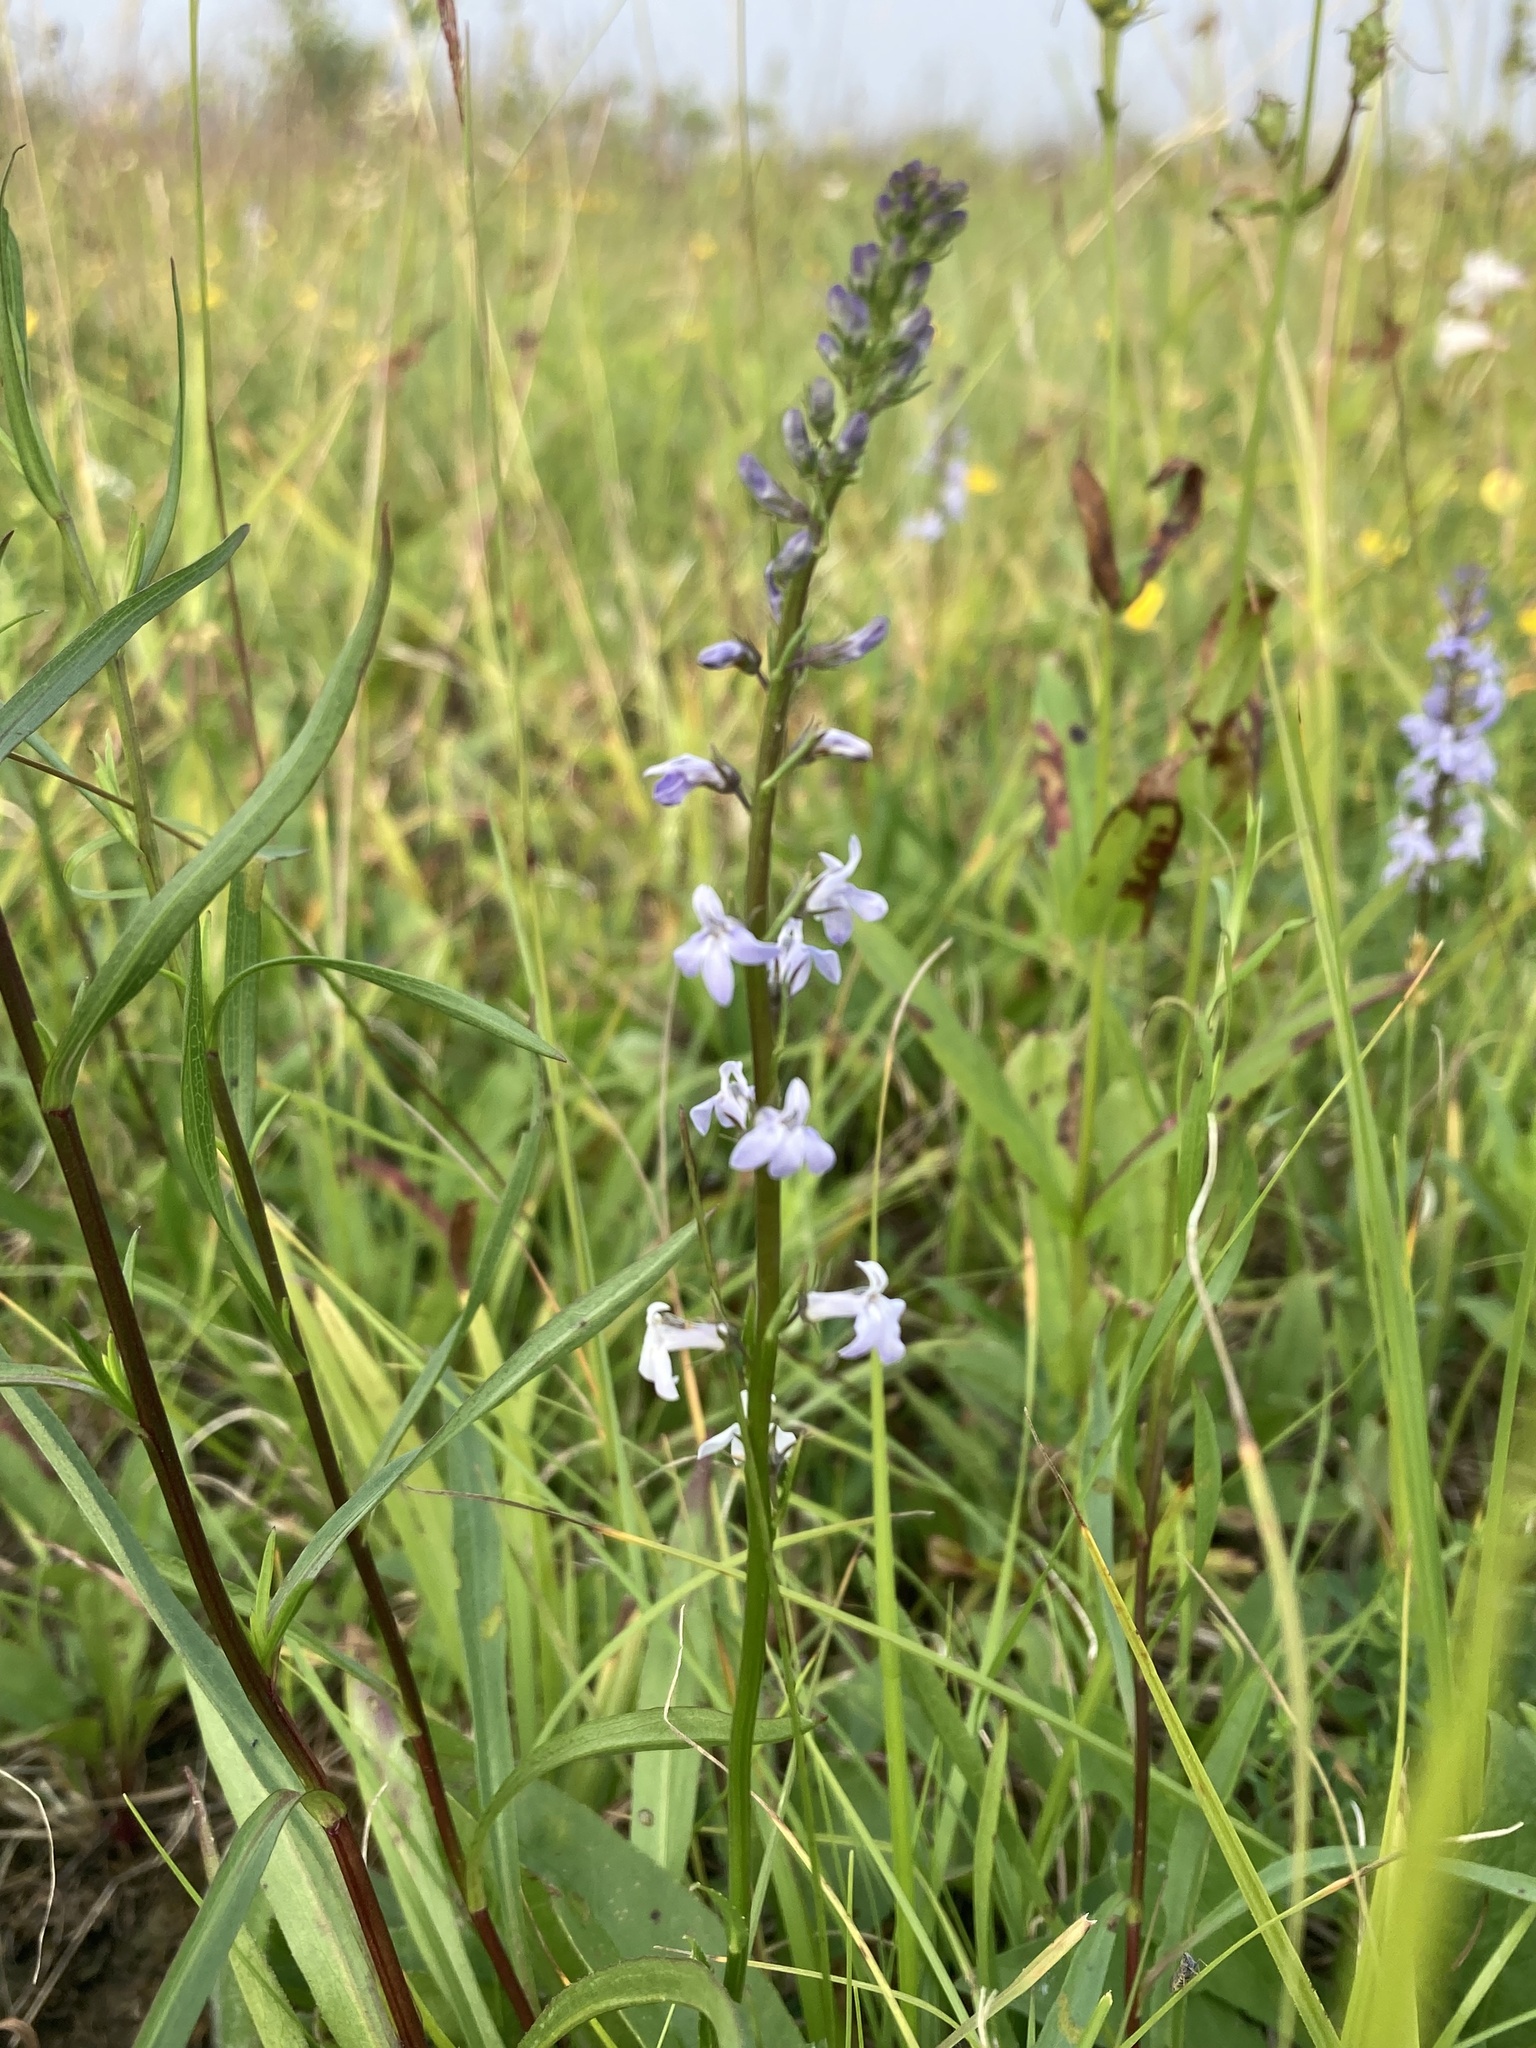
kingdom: Plantae
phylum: Tracheophyta
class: Magnoliopsida
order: Asterales
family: Campanulaceae
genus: Lobelia
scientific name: Lobelia spicata
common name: Pale-spike lobelia
